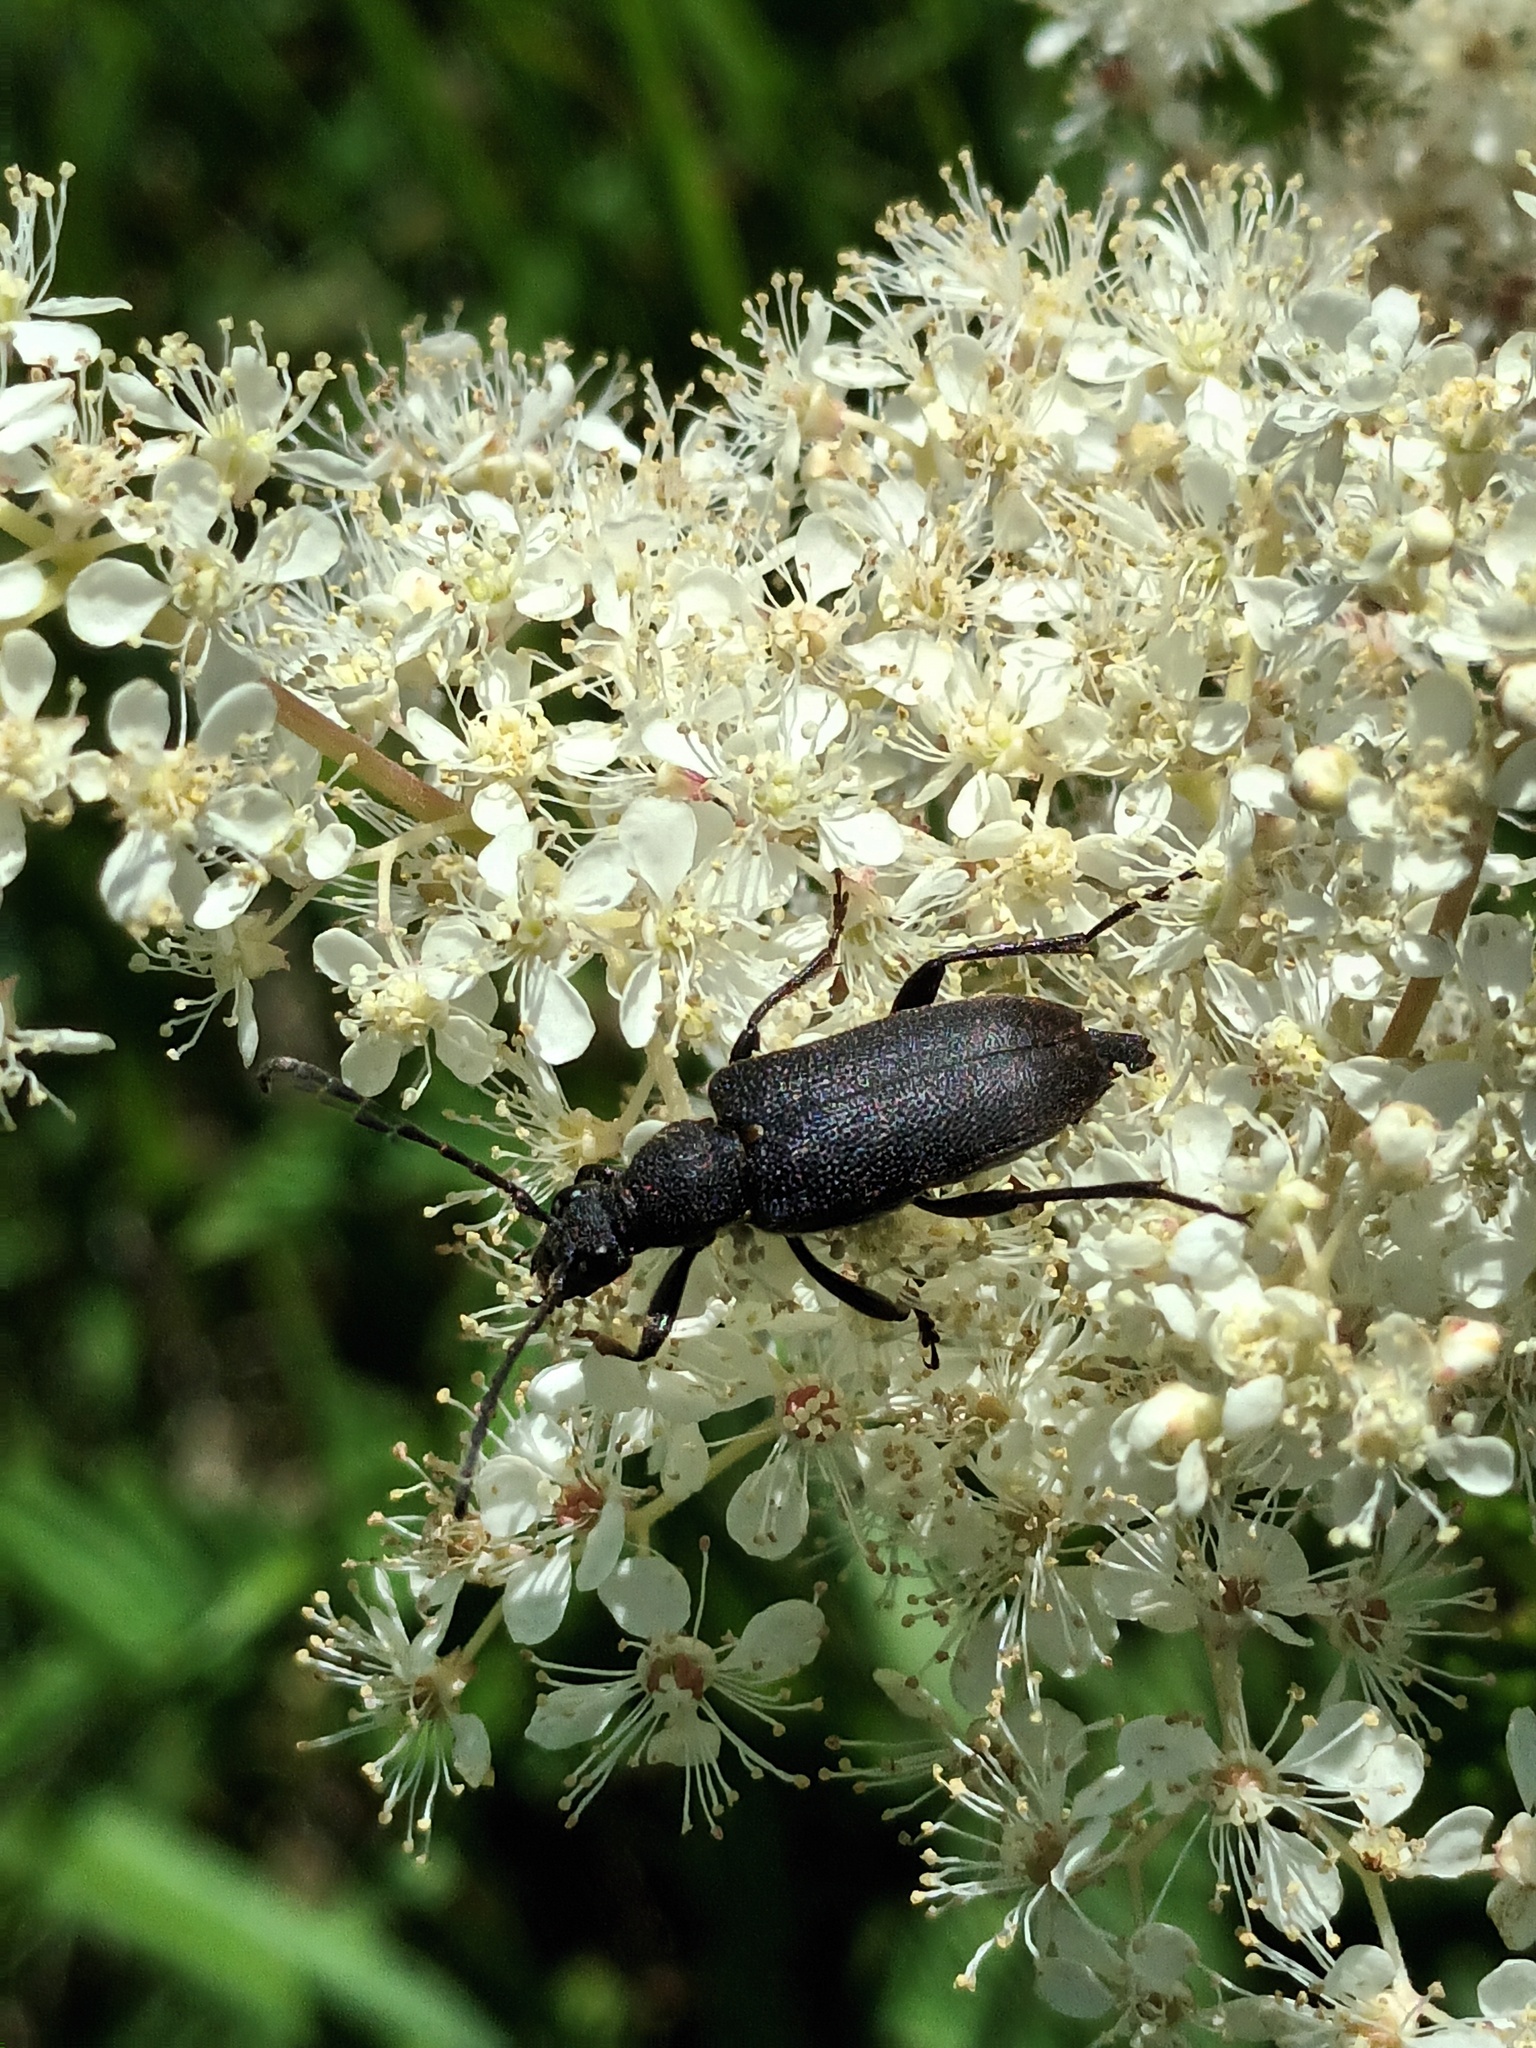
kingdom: Animalia
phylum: Arthropoda
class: Insecta
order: Coleoptera
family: Cerambycidae
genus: Stictoleptura
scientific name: Stictoleptura scutellata
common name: Large black longhorn beetle
